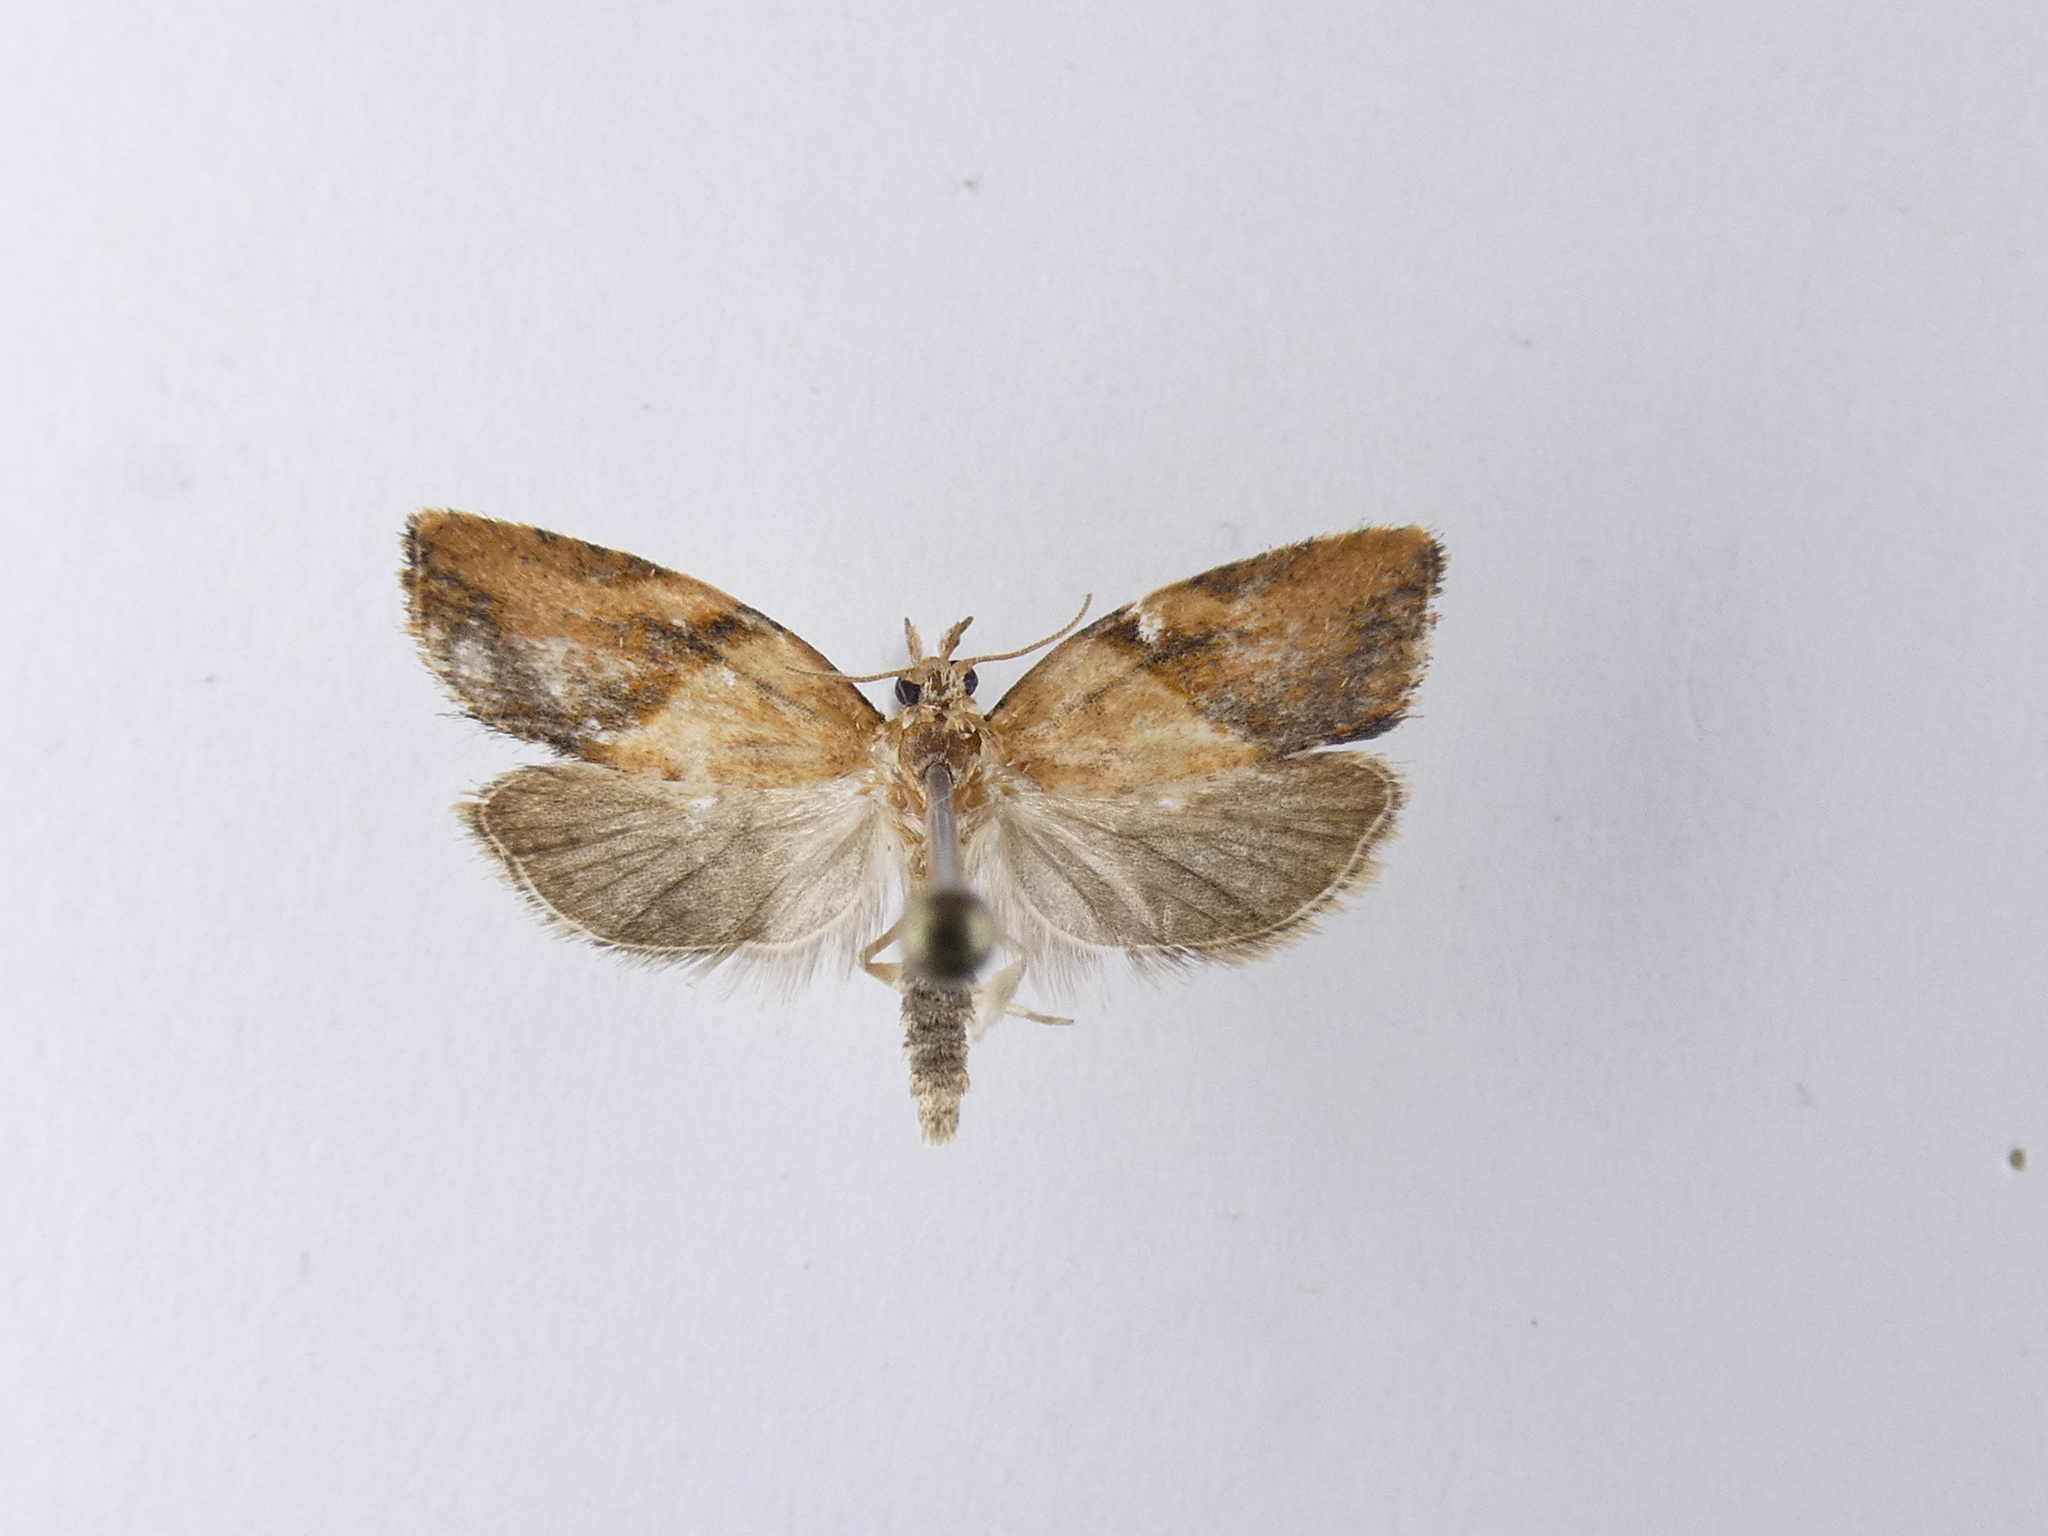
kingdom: Animalia
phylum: Arthropoda
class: Insecta
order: Lepidoptera
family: Tortricidae
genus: Epiphyas
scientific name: Epiphyas postvittana
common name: Light brown apple moth
